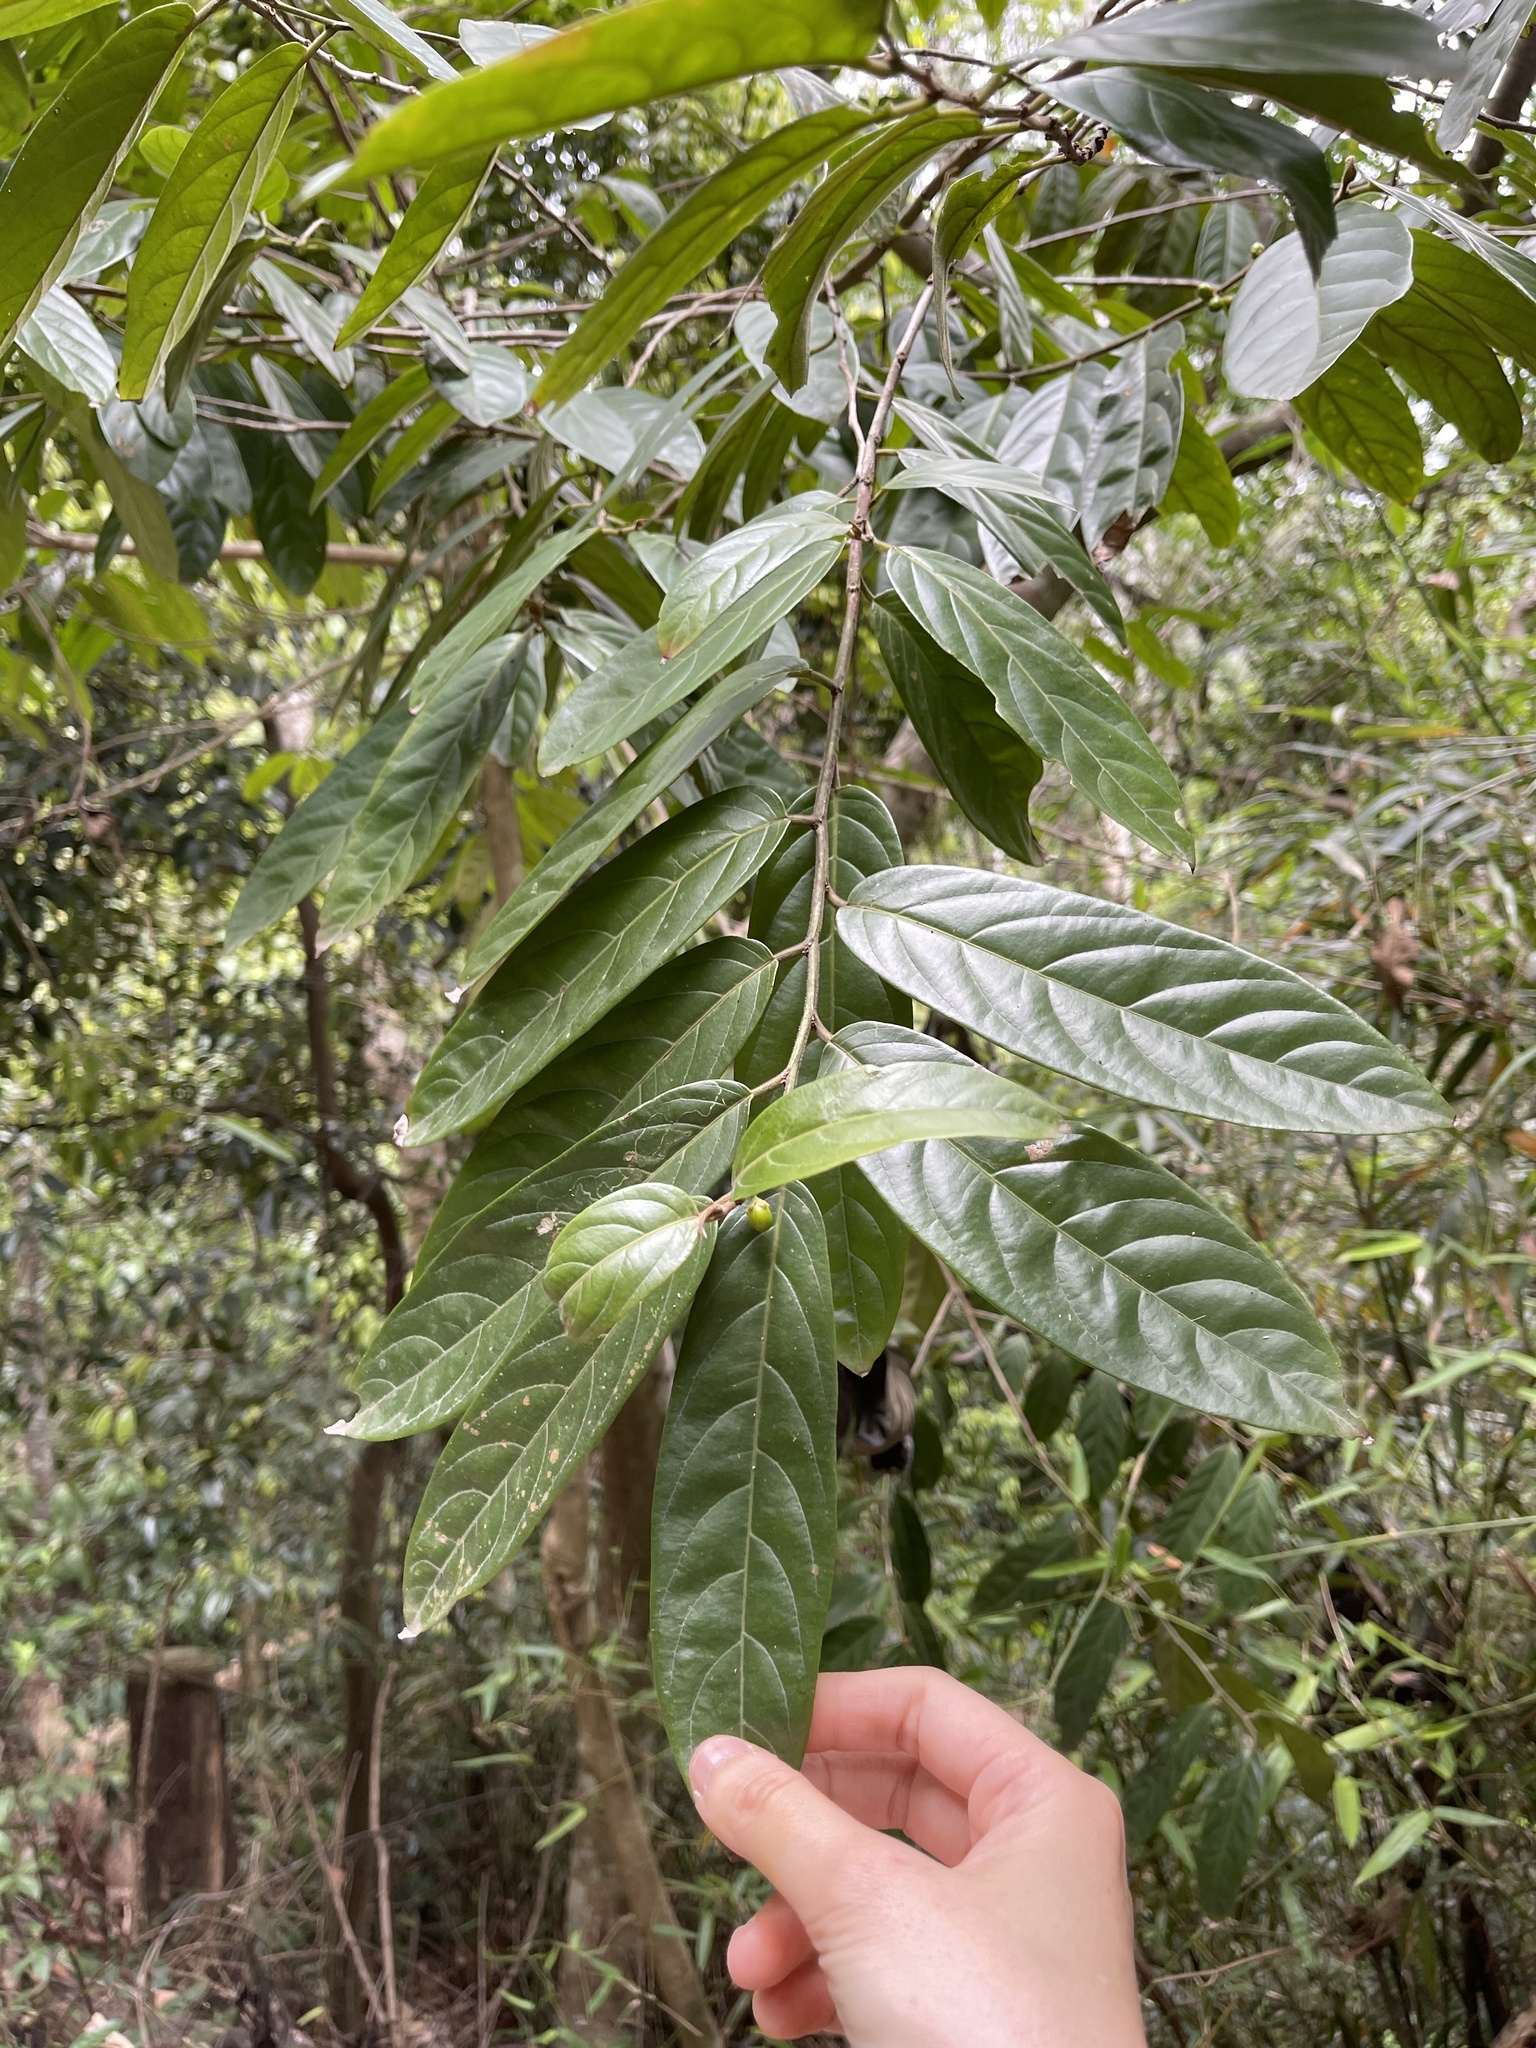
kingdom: Plantae
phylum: Tracheophyta
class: Magnoliopsida
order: Malpighiales
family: Salicaceae
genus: Casearia
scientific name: Casearia velutina
